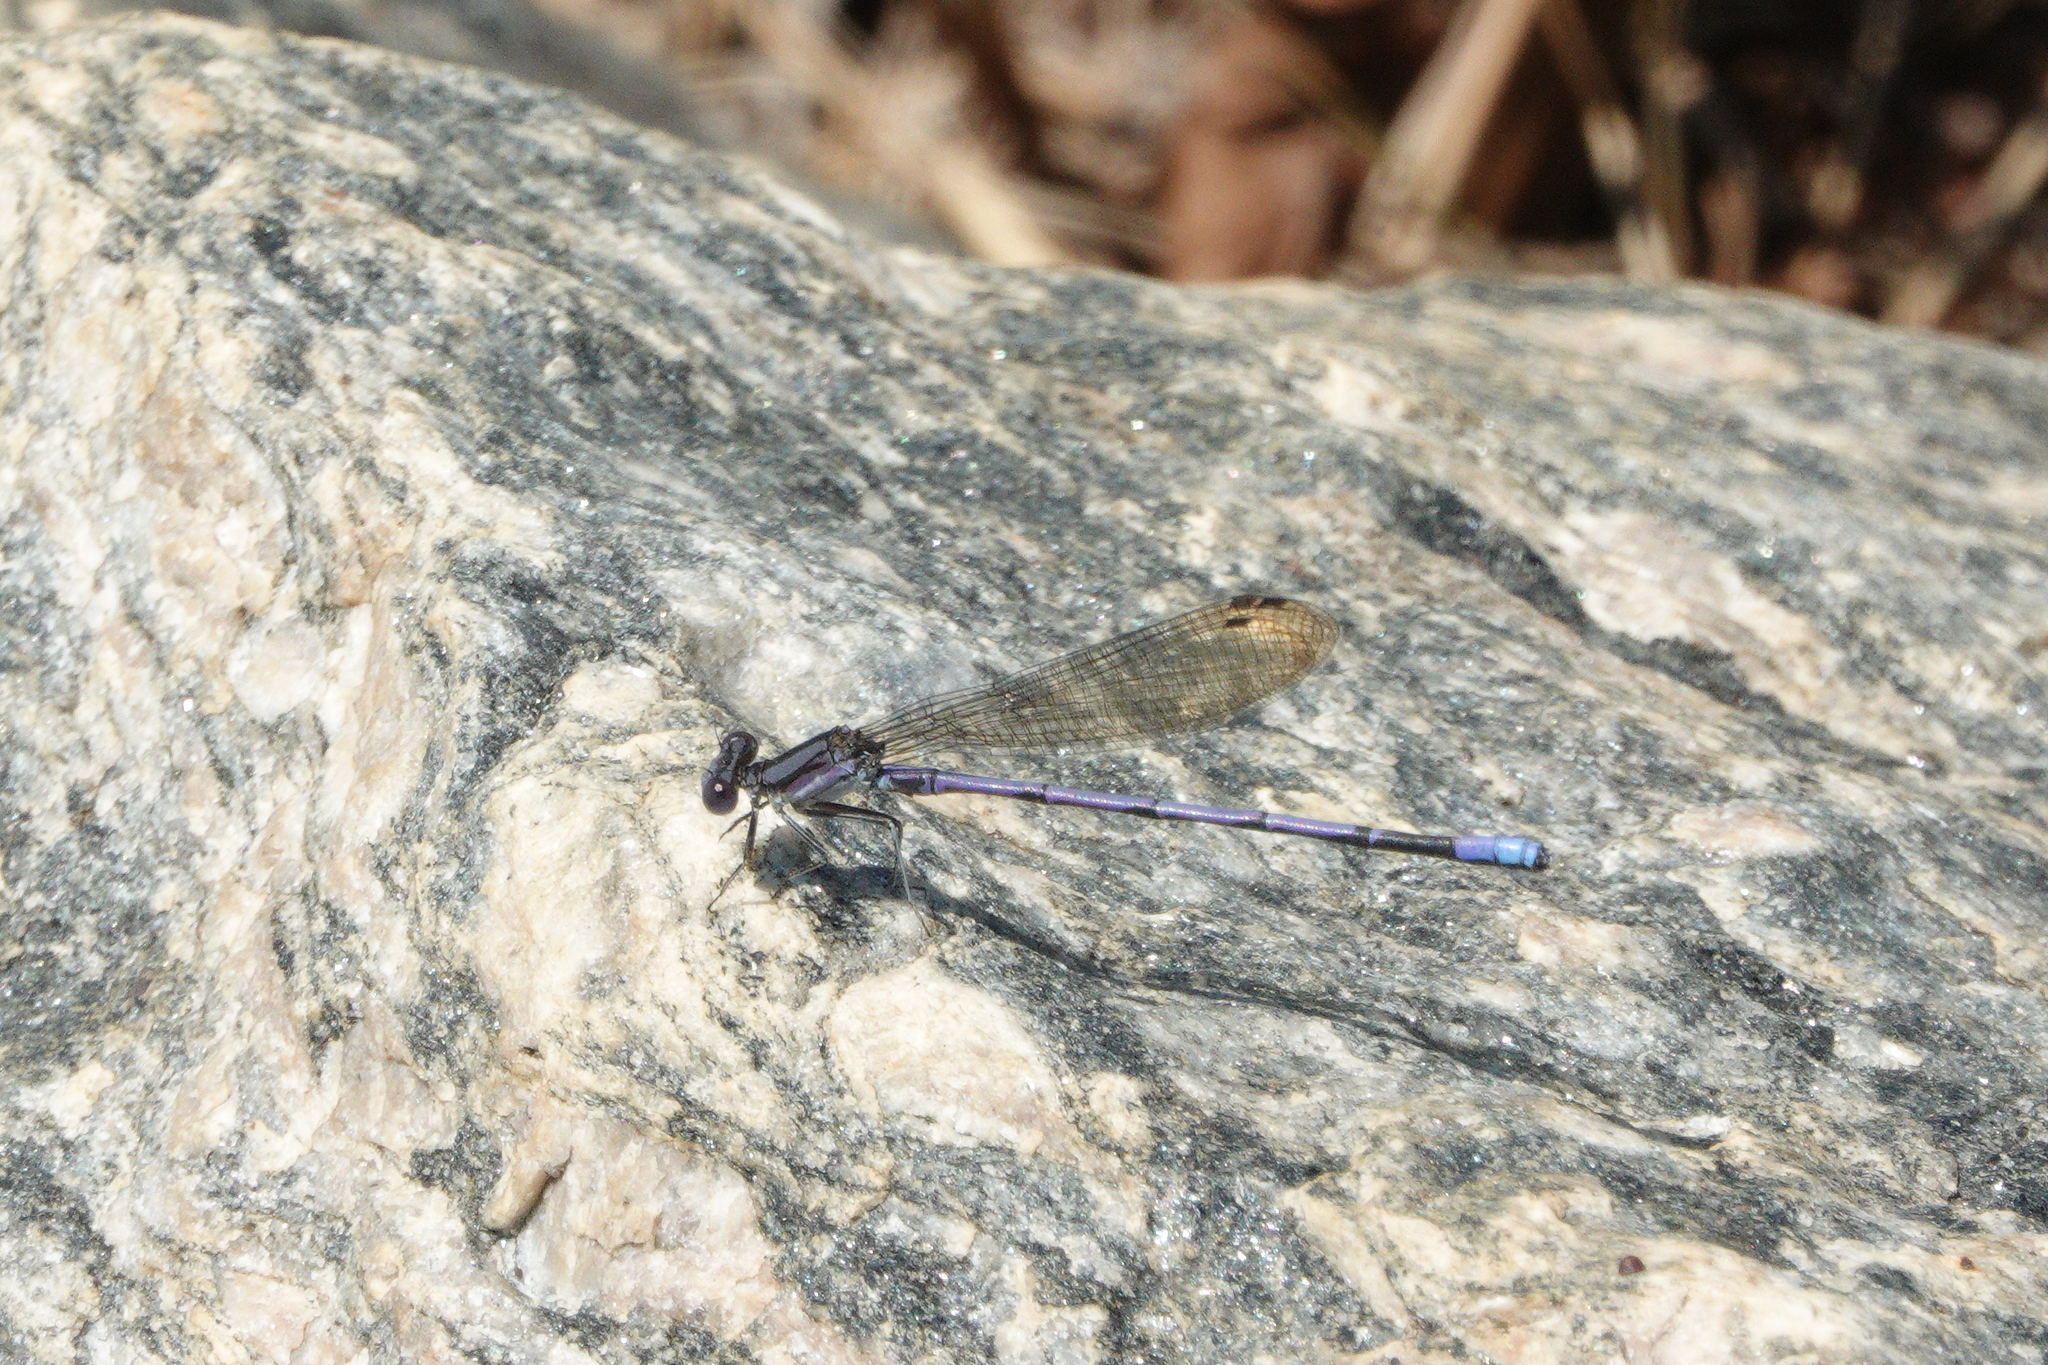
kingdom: Animalia
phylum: Arthropoda
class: Insecta
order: Odonata
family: Coenagrionidae
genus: Argia
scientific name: Argia fumipennis
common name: Variable dancer
